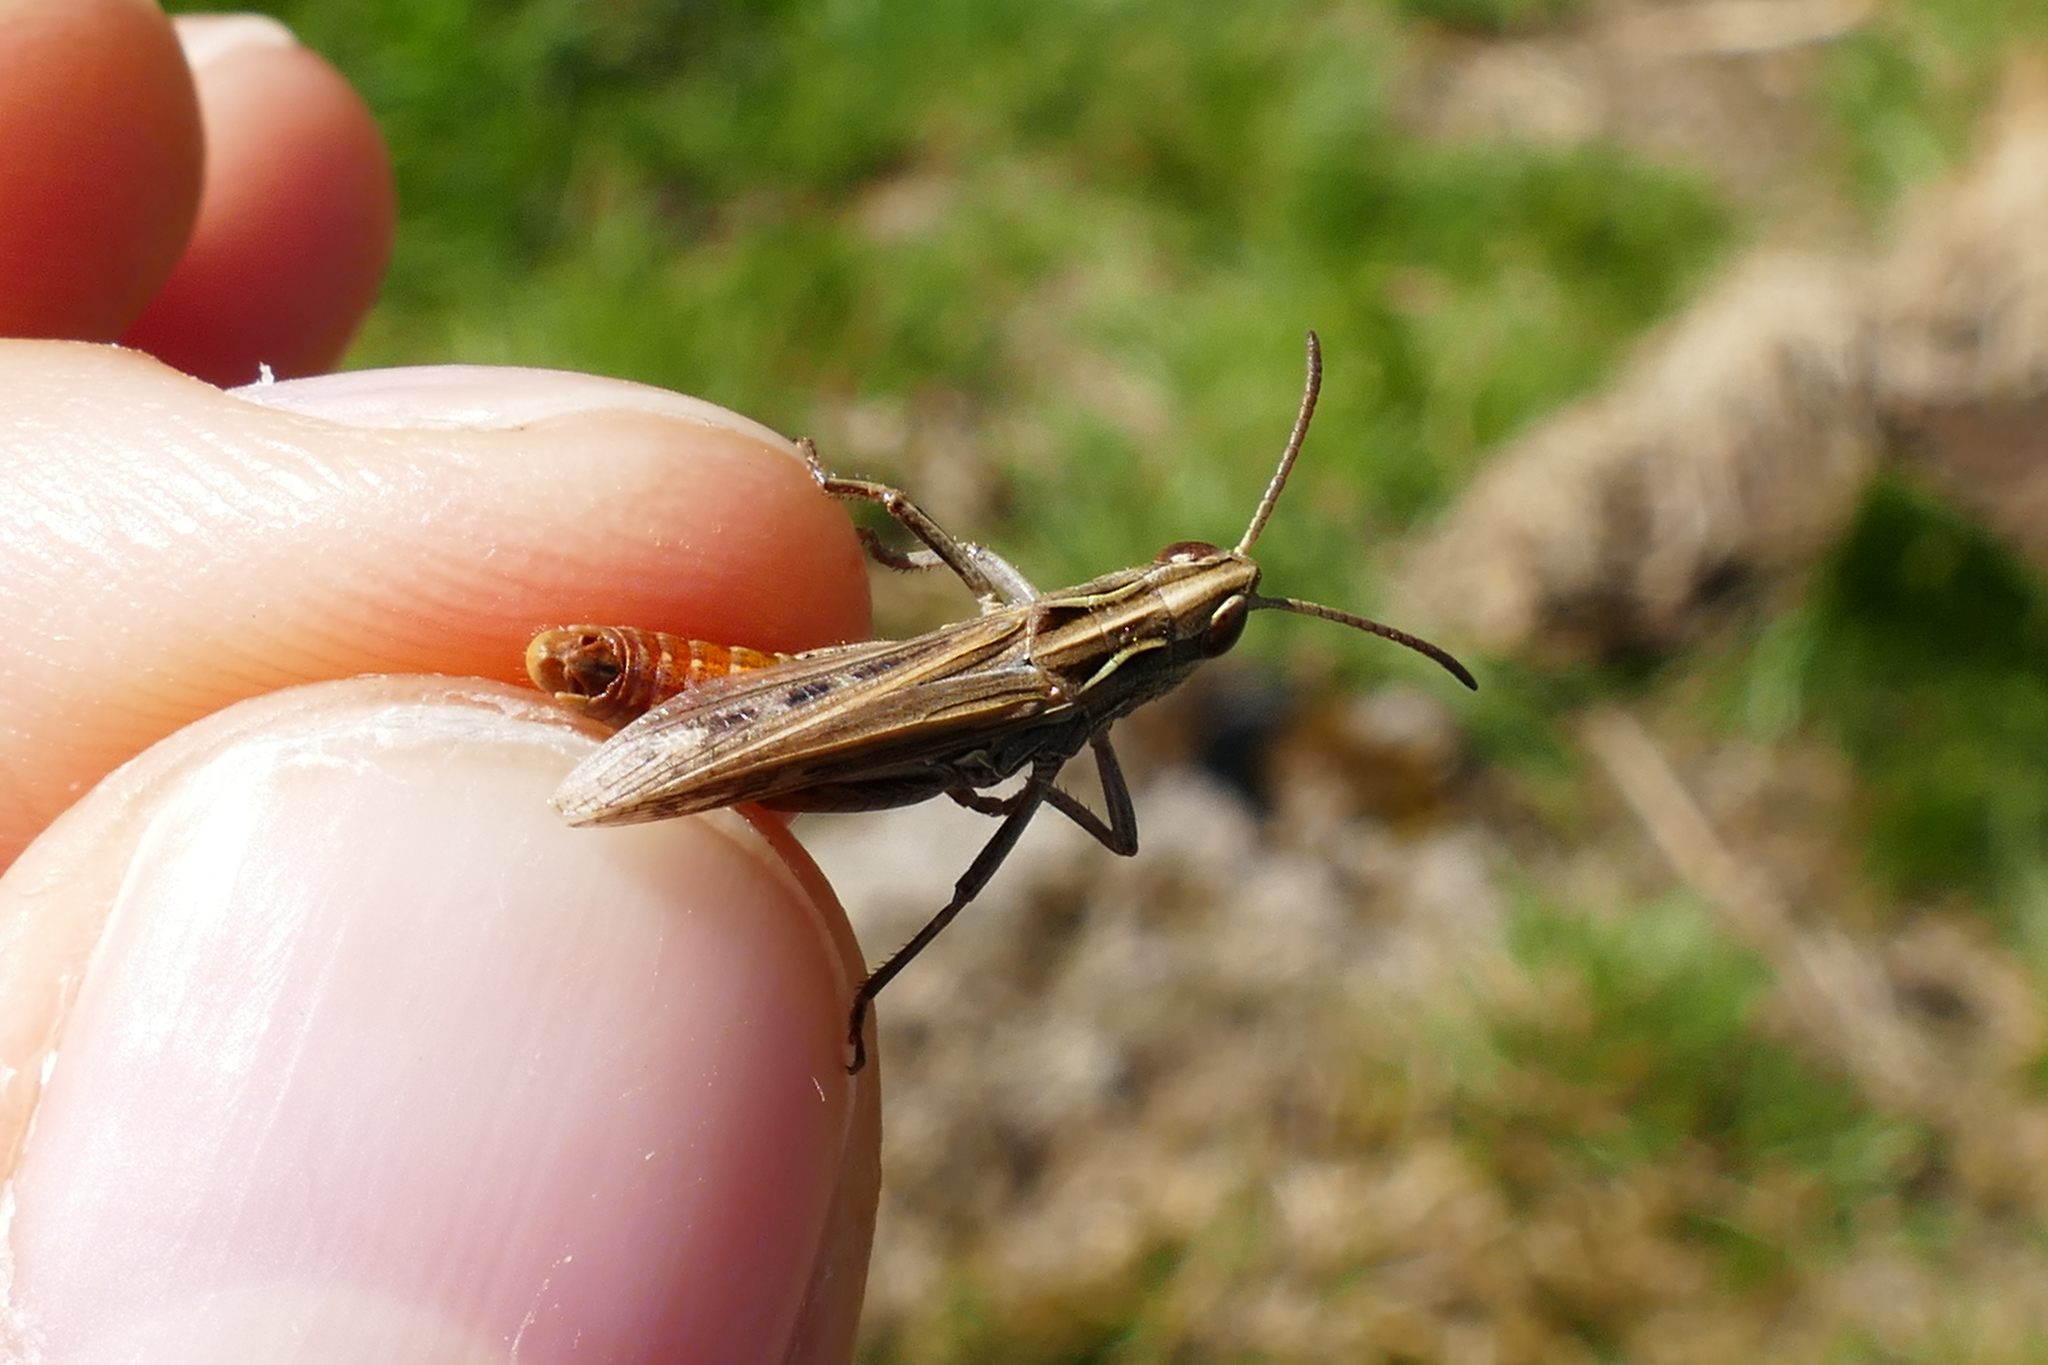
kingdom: Animalia
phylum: Arthropoda
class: Insecta
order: Orthoptera
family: Acrididae
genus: Stenobothrus
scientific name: Stenobothrus stigmaticus
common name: Lesser mottled grasshopper
